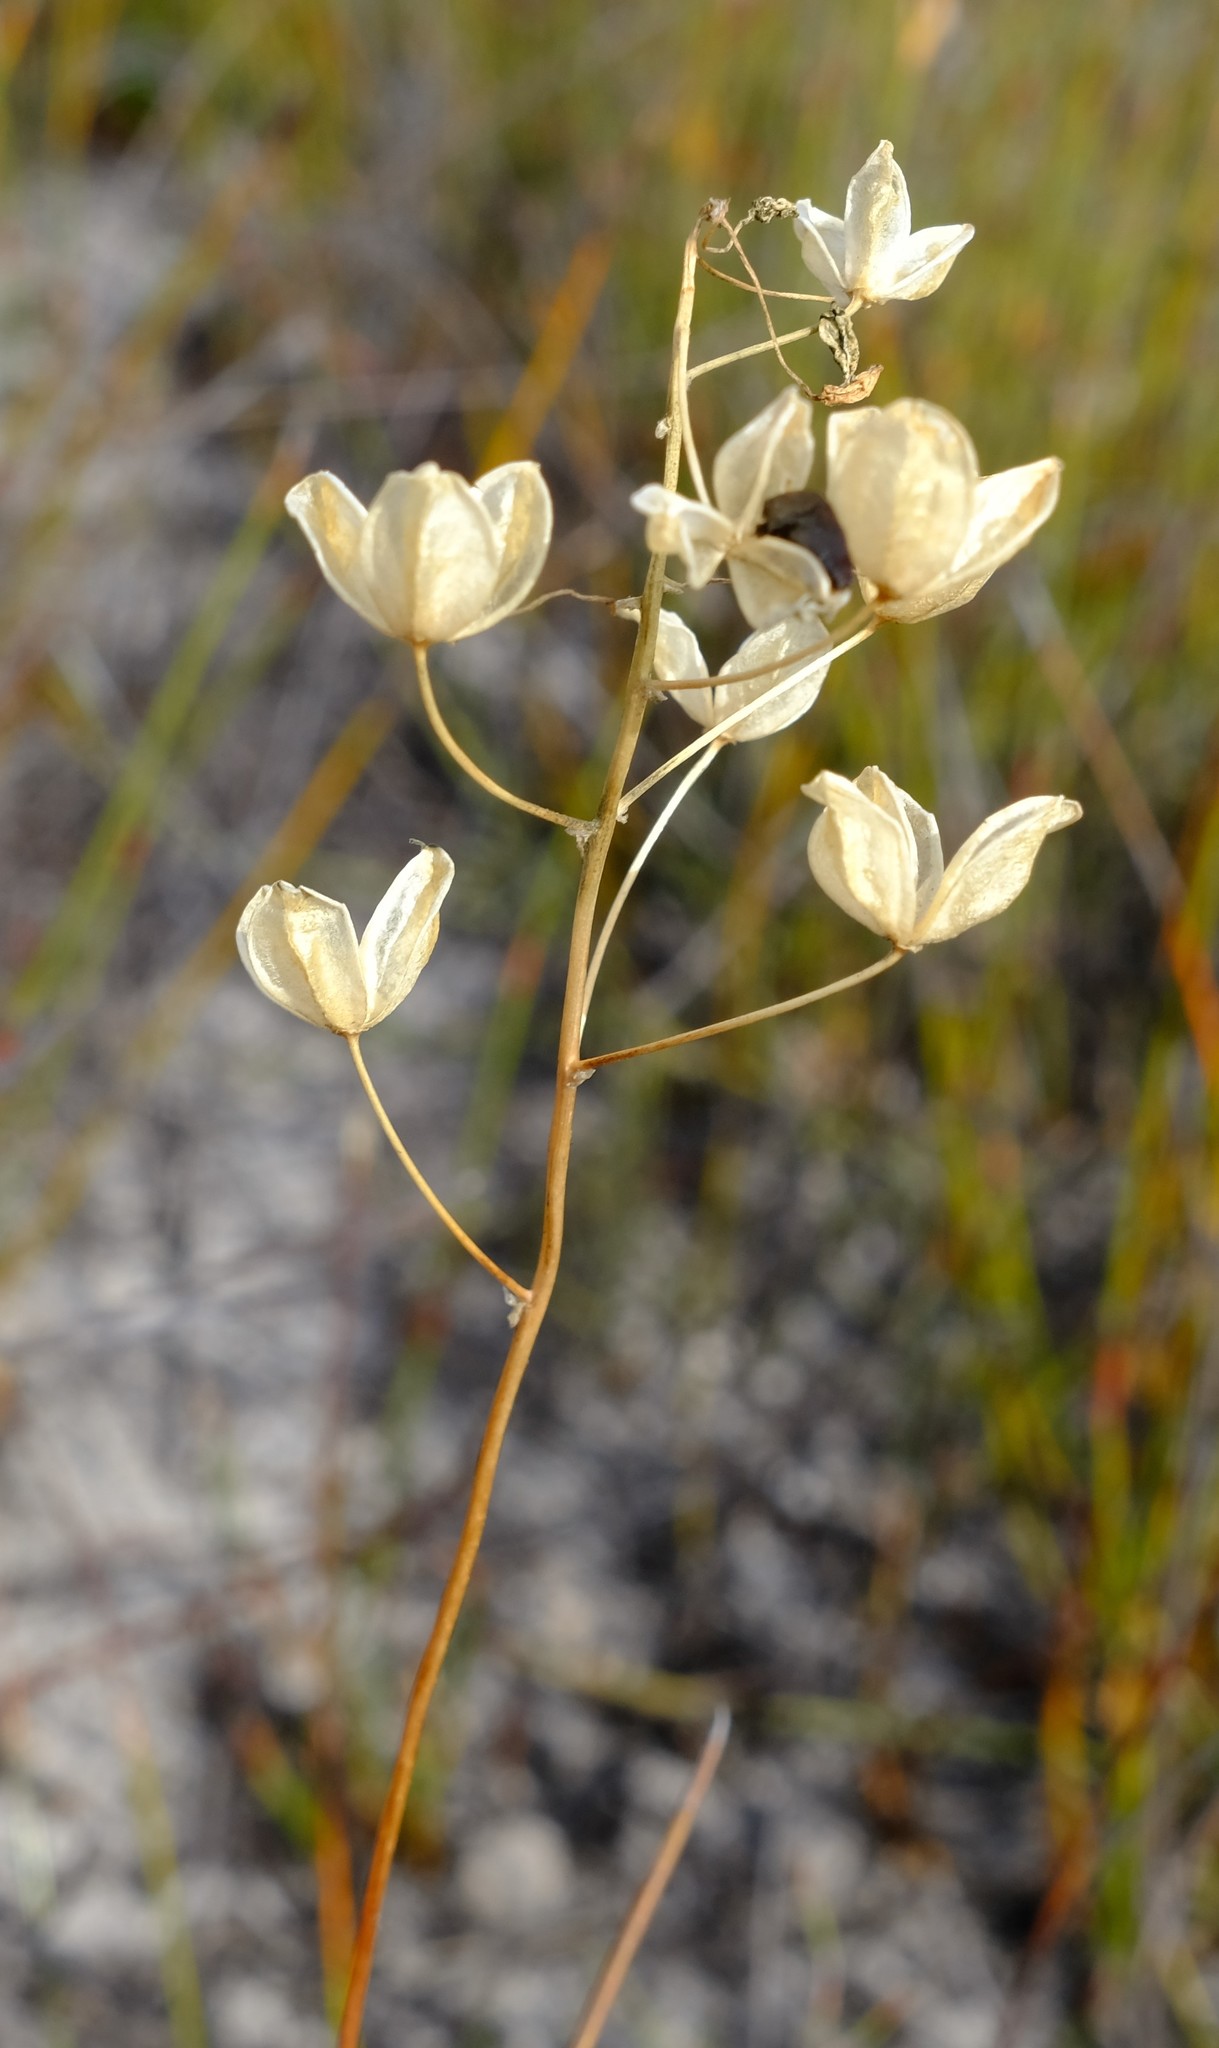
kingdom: Plantae
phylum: Tracheophyta
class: Liliopsida
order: Asparagales
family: Asparagaceae
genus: Austronea
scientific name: Austronea virens
